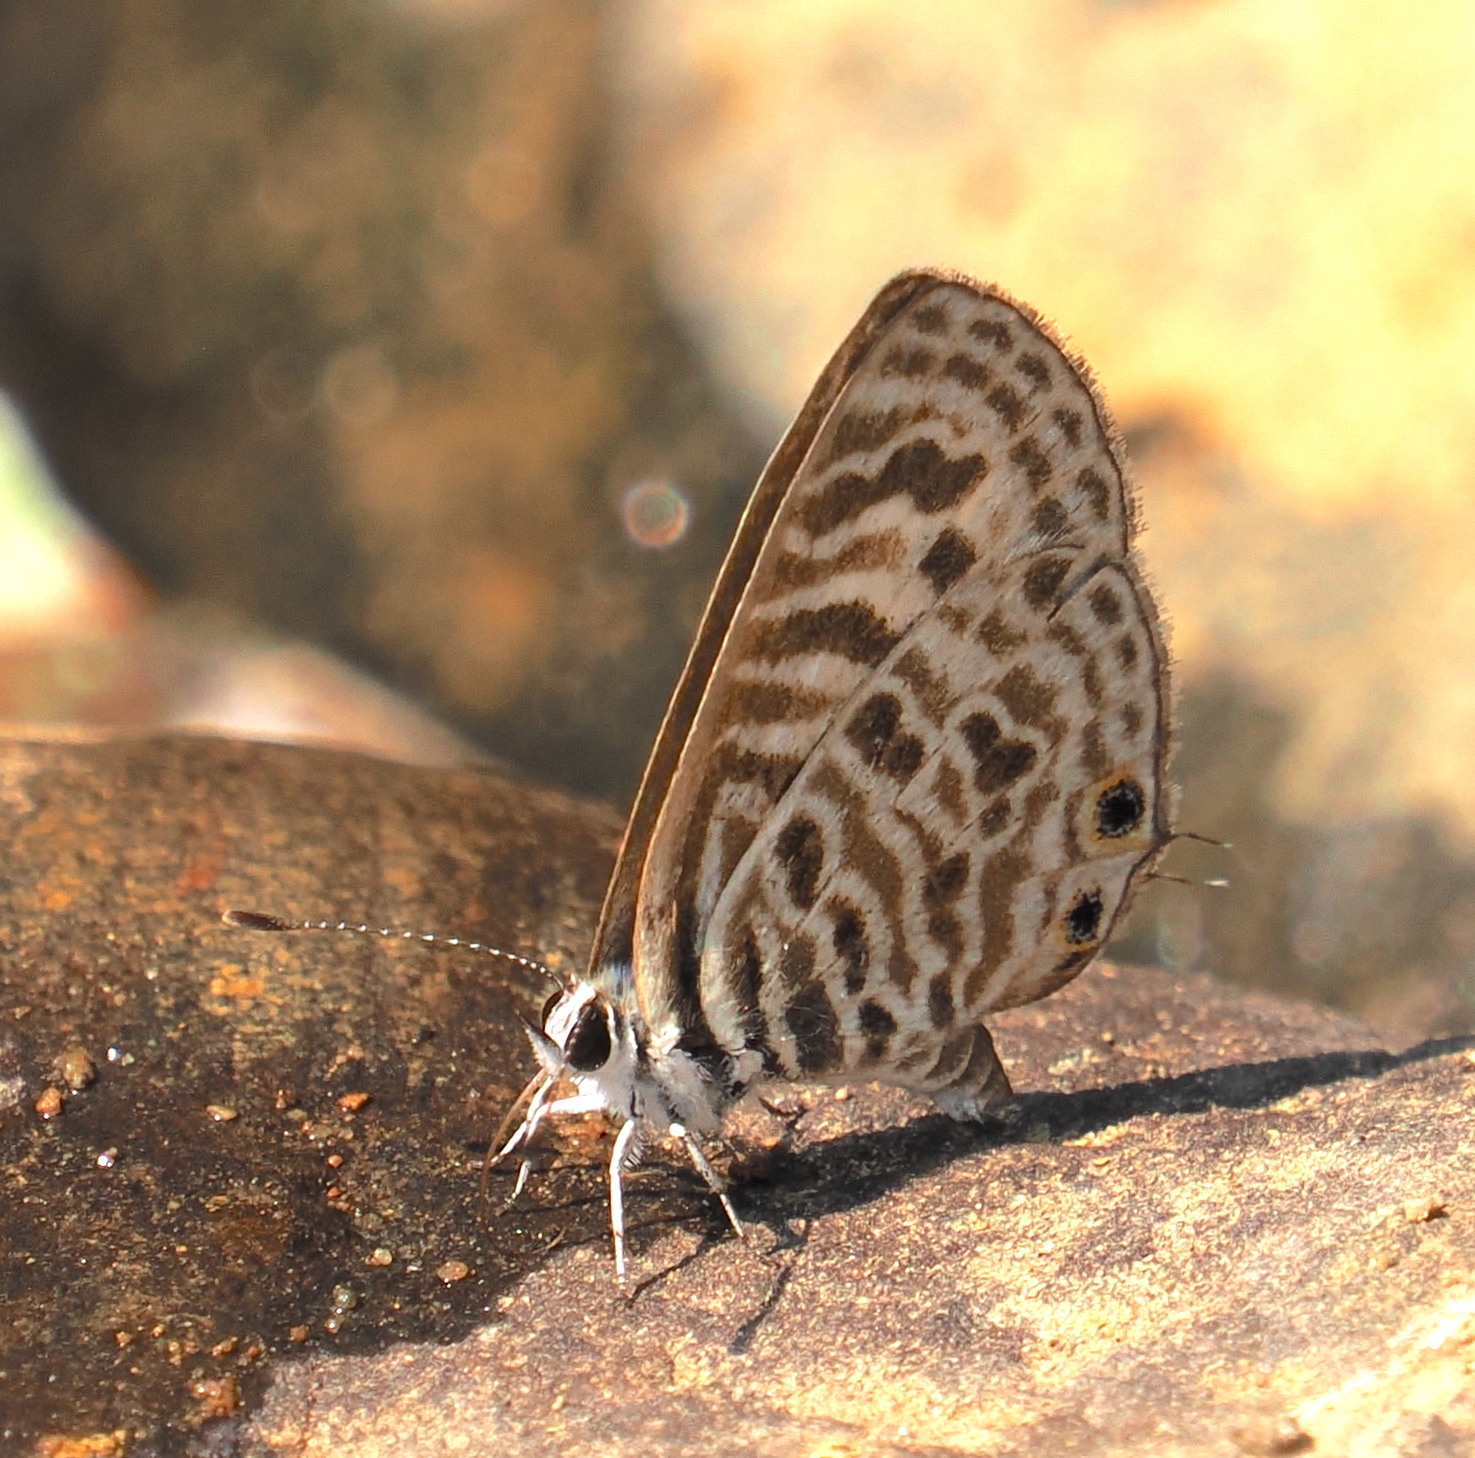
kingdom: Animalia
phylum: Arthropoda
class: Insecta
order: Lepidoptera
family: Lycaenidae
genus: Leptotes
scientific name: Leptotes plinius
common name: Zebra blue
